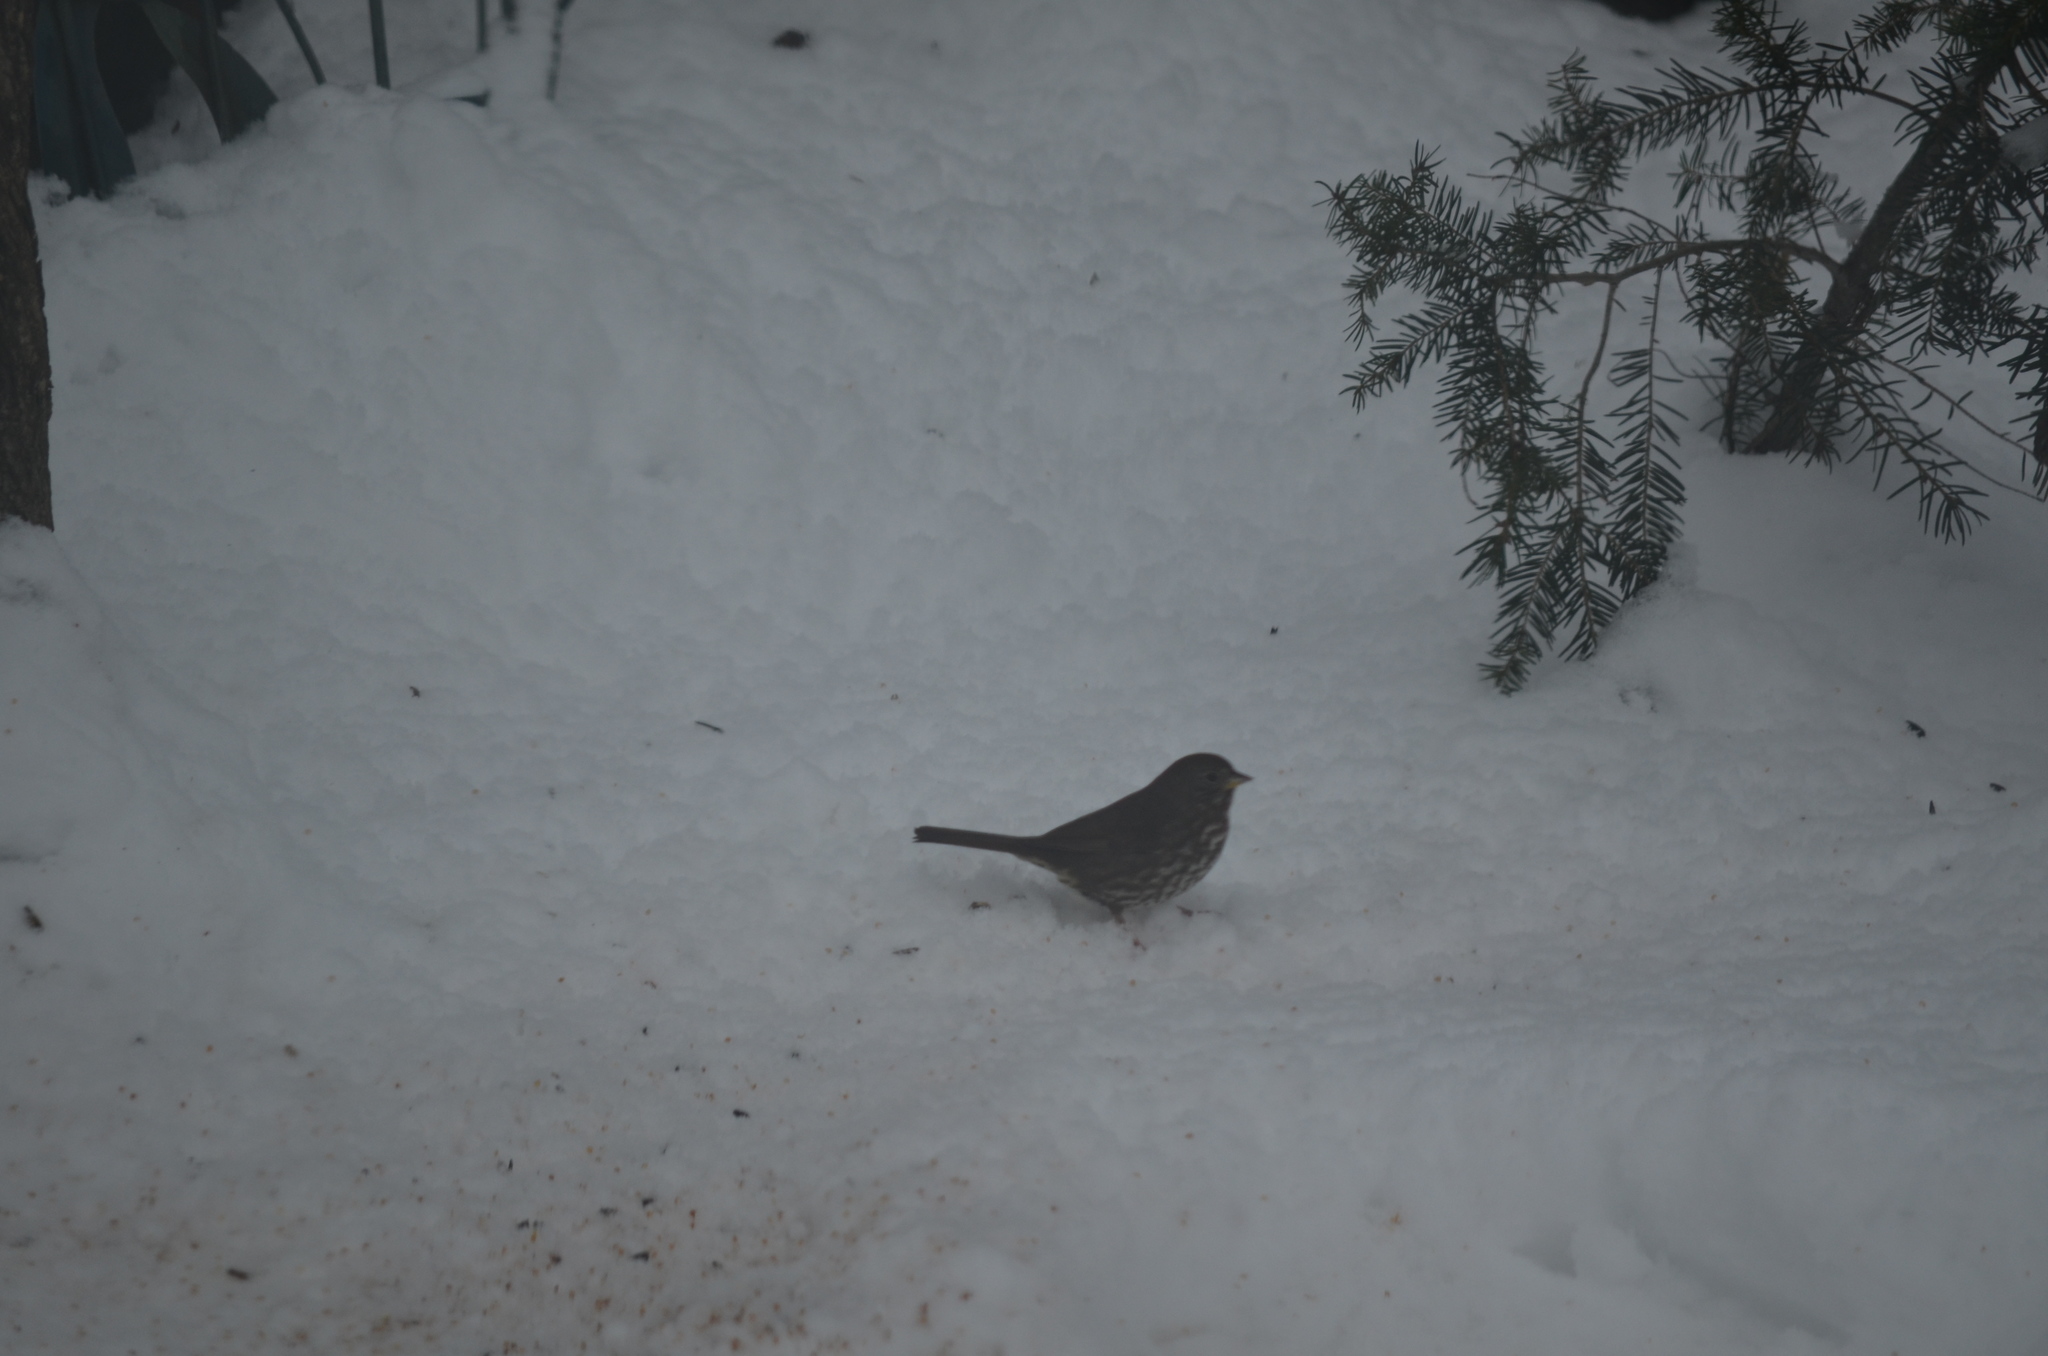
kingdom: Animalia
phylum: Chordata
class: Aves
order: Passeriformes
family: Passerellidae
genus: Passerella
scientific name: Passerella iliaca
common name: Fox sparrow
